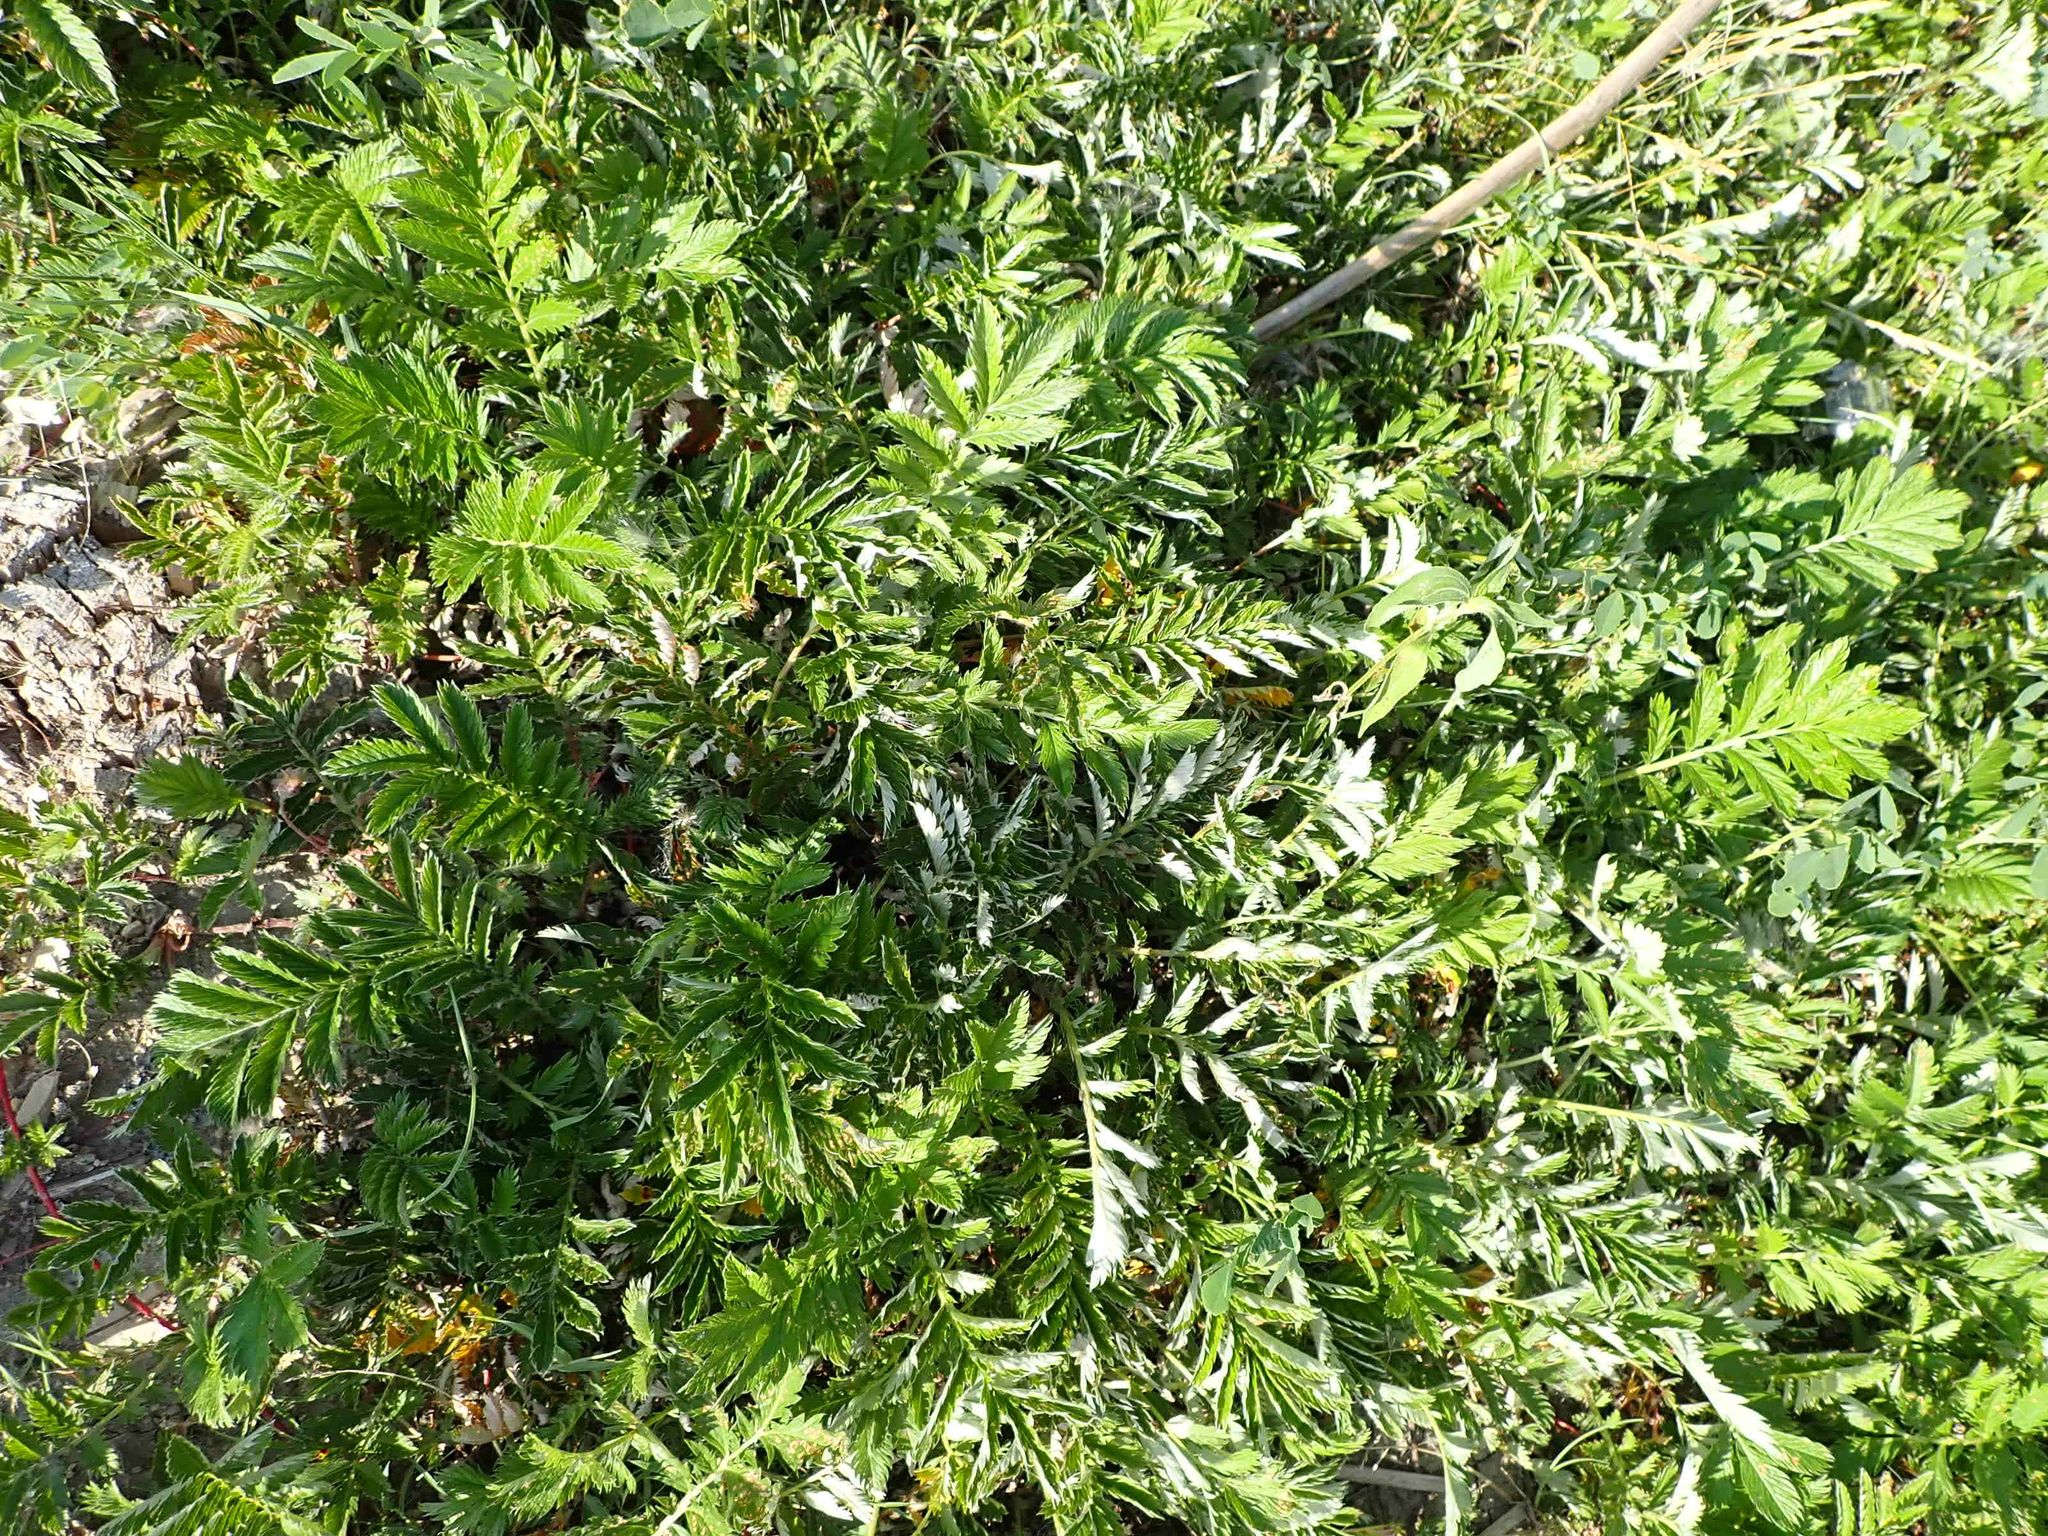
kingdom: Plantae
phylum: Tracheophyta
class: Magnoliopsida
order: Rosales
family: Rosaceae
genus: Argentina
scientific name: Argentina anserina
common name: Common silverweed
